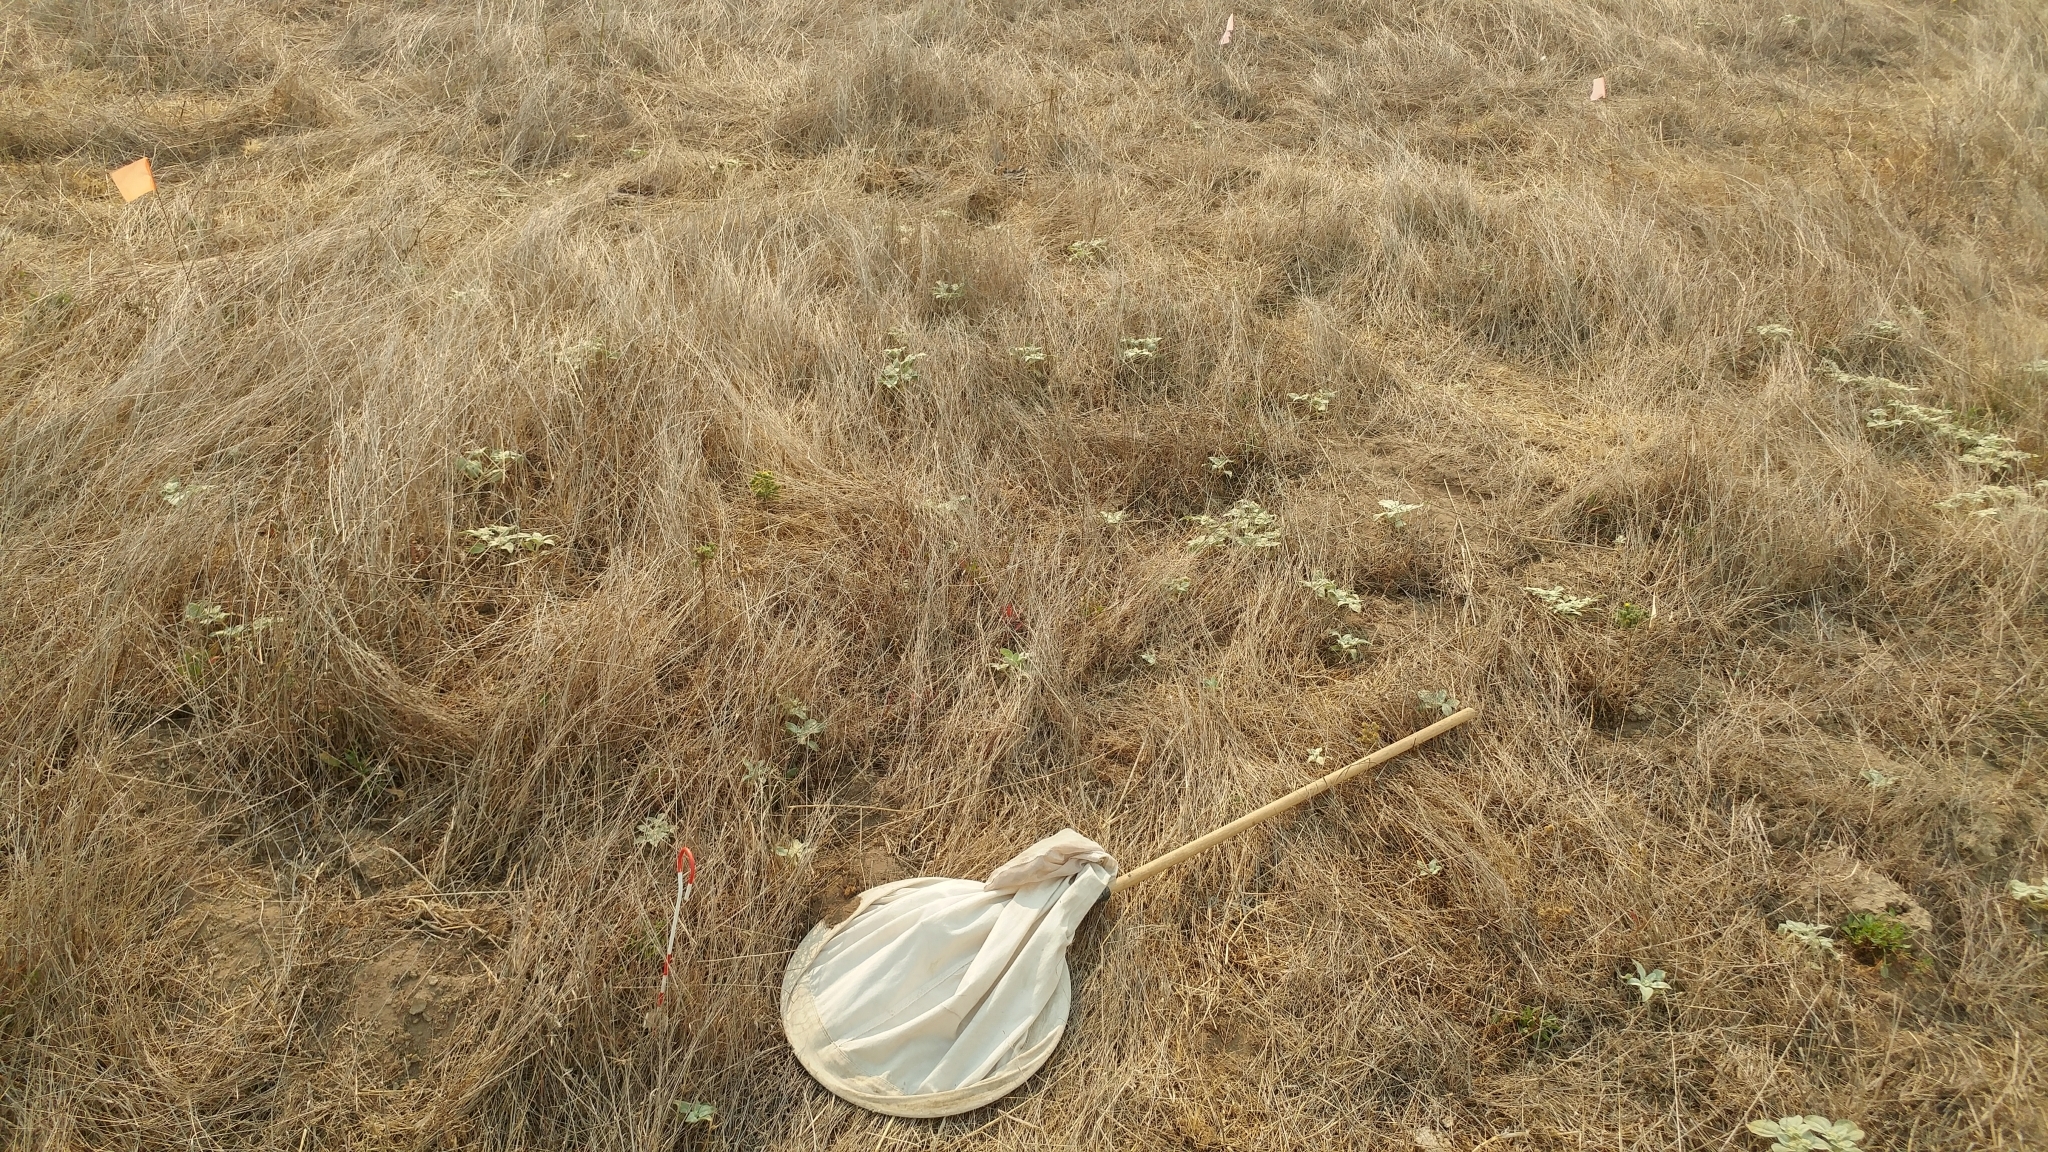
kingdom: Plantae
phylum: Tracheophyta
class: Magnoliopsida
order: Asterales
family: Asteraceae
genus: Deinandra
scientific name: Deinandra increscens
